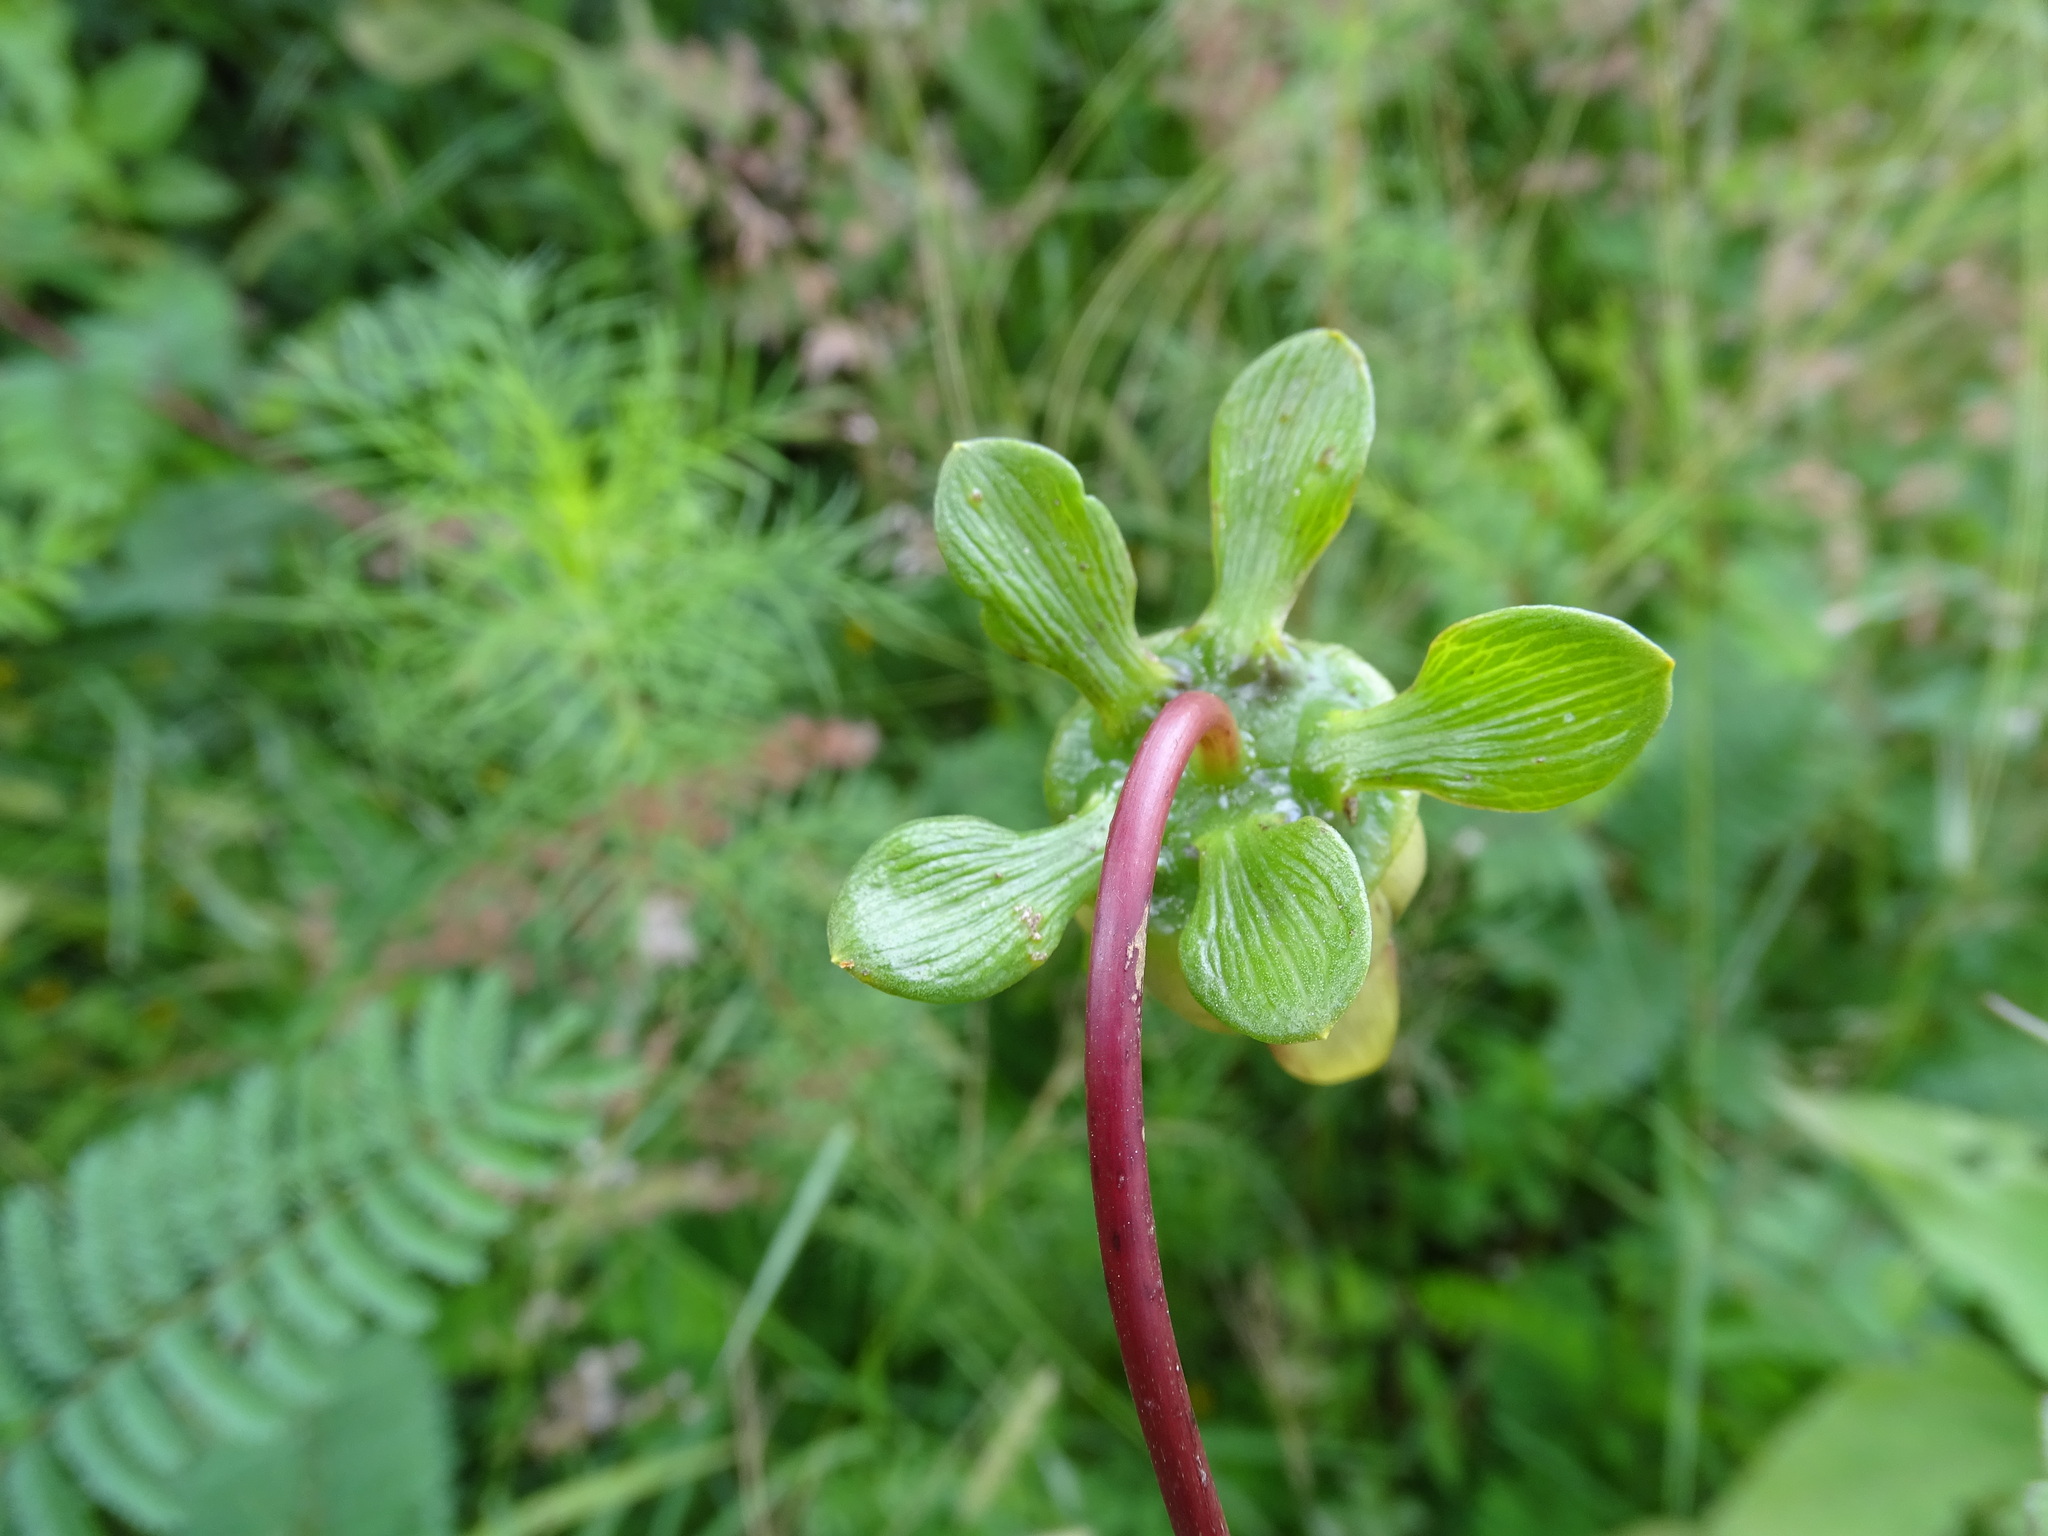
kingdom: Plantae
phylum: Tracheophyta
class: Magnoliopsida
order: Asterales
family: Asteraceae
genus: Dahlia
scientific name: Dahlia coccinea
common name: Red dahlia
